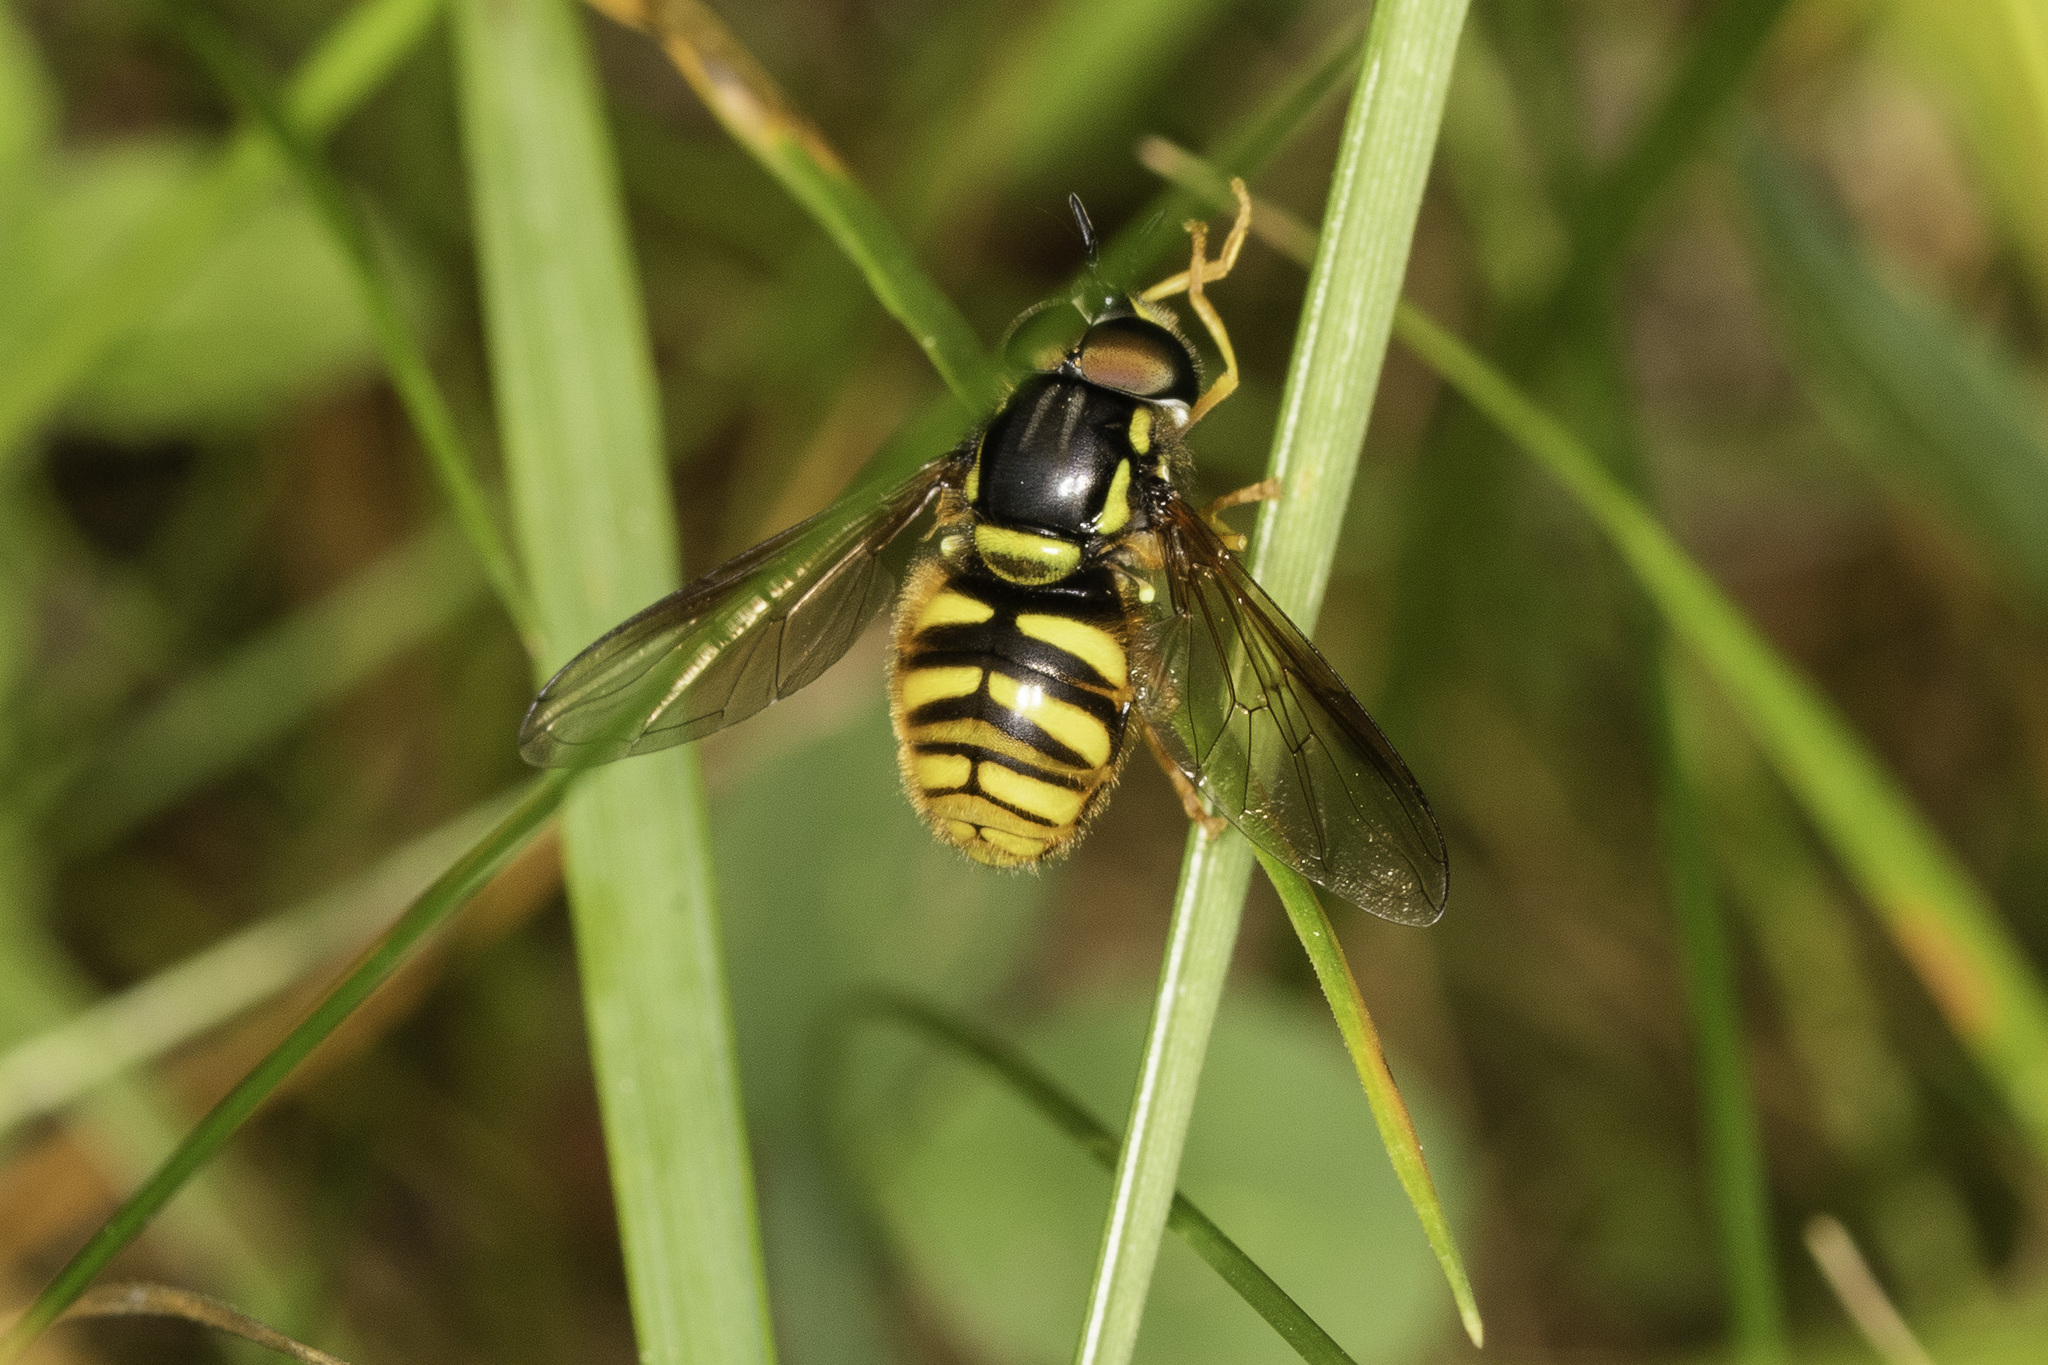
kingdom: Animalia
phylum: Arthropoda
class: Insecta
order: Diptera
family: Syrphidae
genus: Chrysotoxum
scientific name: Chrysotoxum arcuatum
